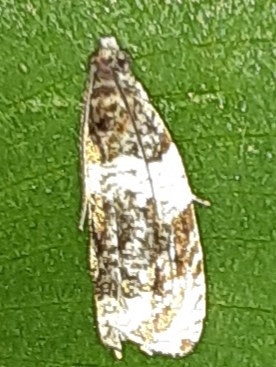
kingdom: Animalia
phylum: Arthropoda
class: Insecta
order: Lepidoptera
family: Tortricidae
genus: Olethreutes
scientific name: Olethreutes fasciatana
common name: Banded olethreutes moth
